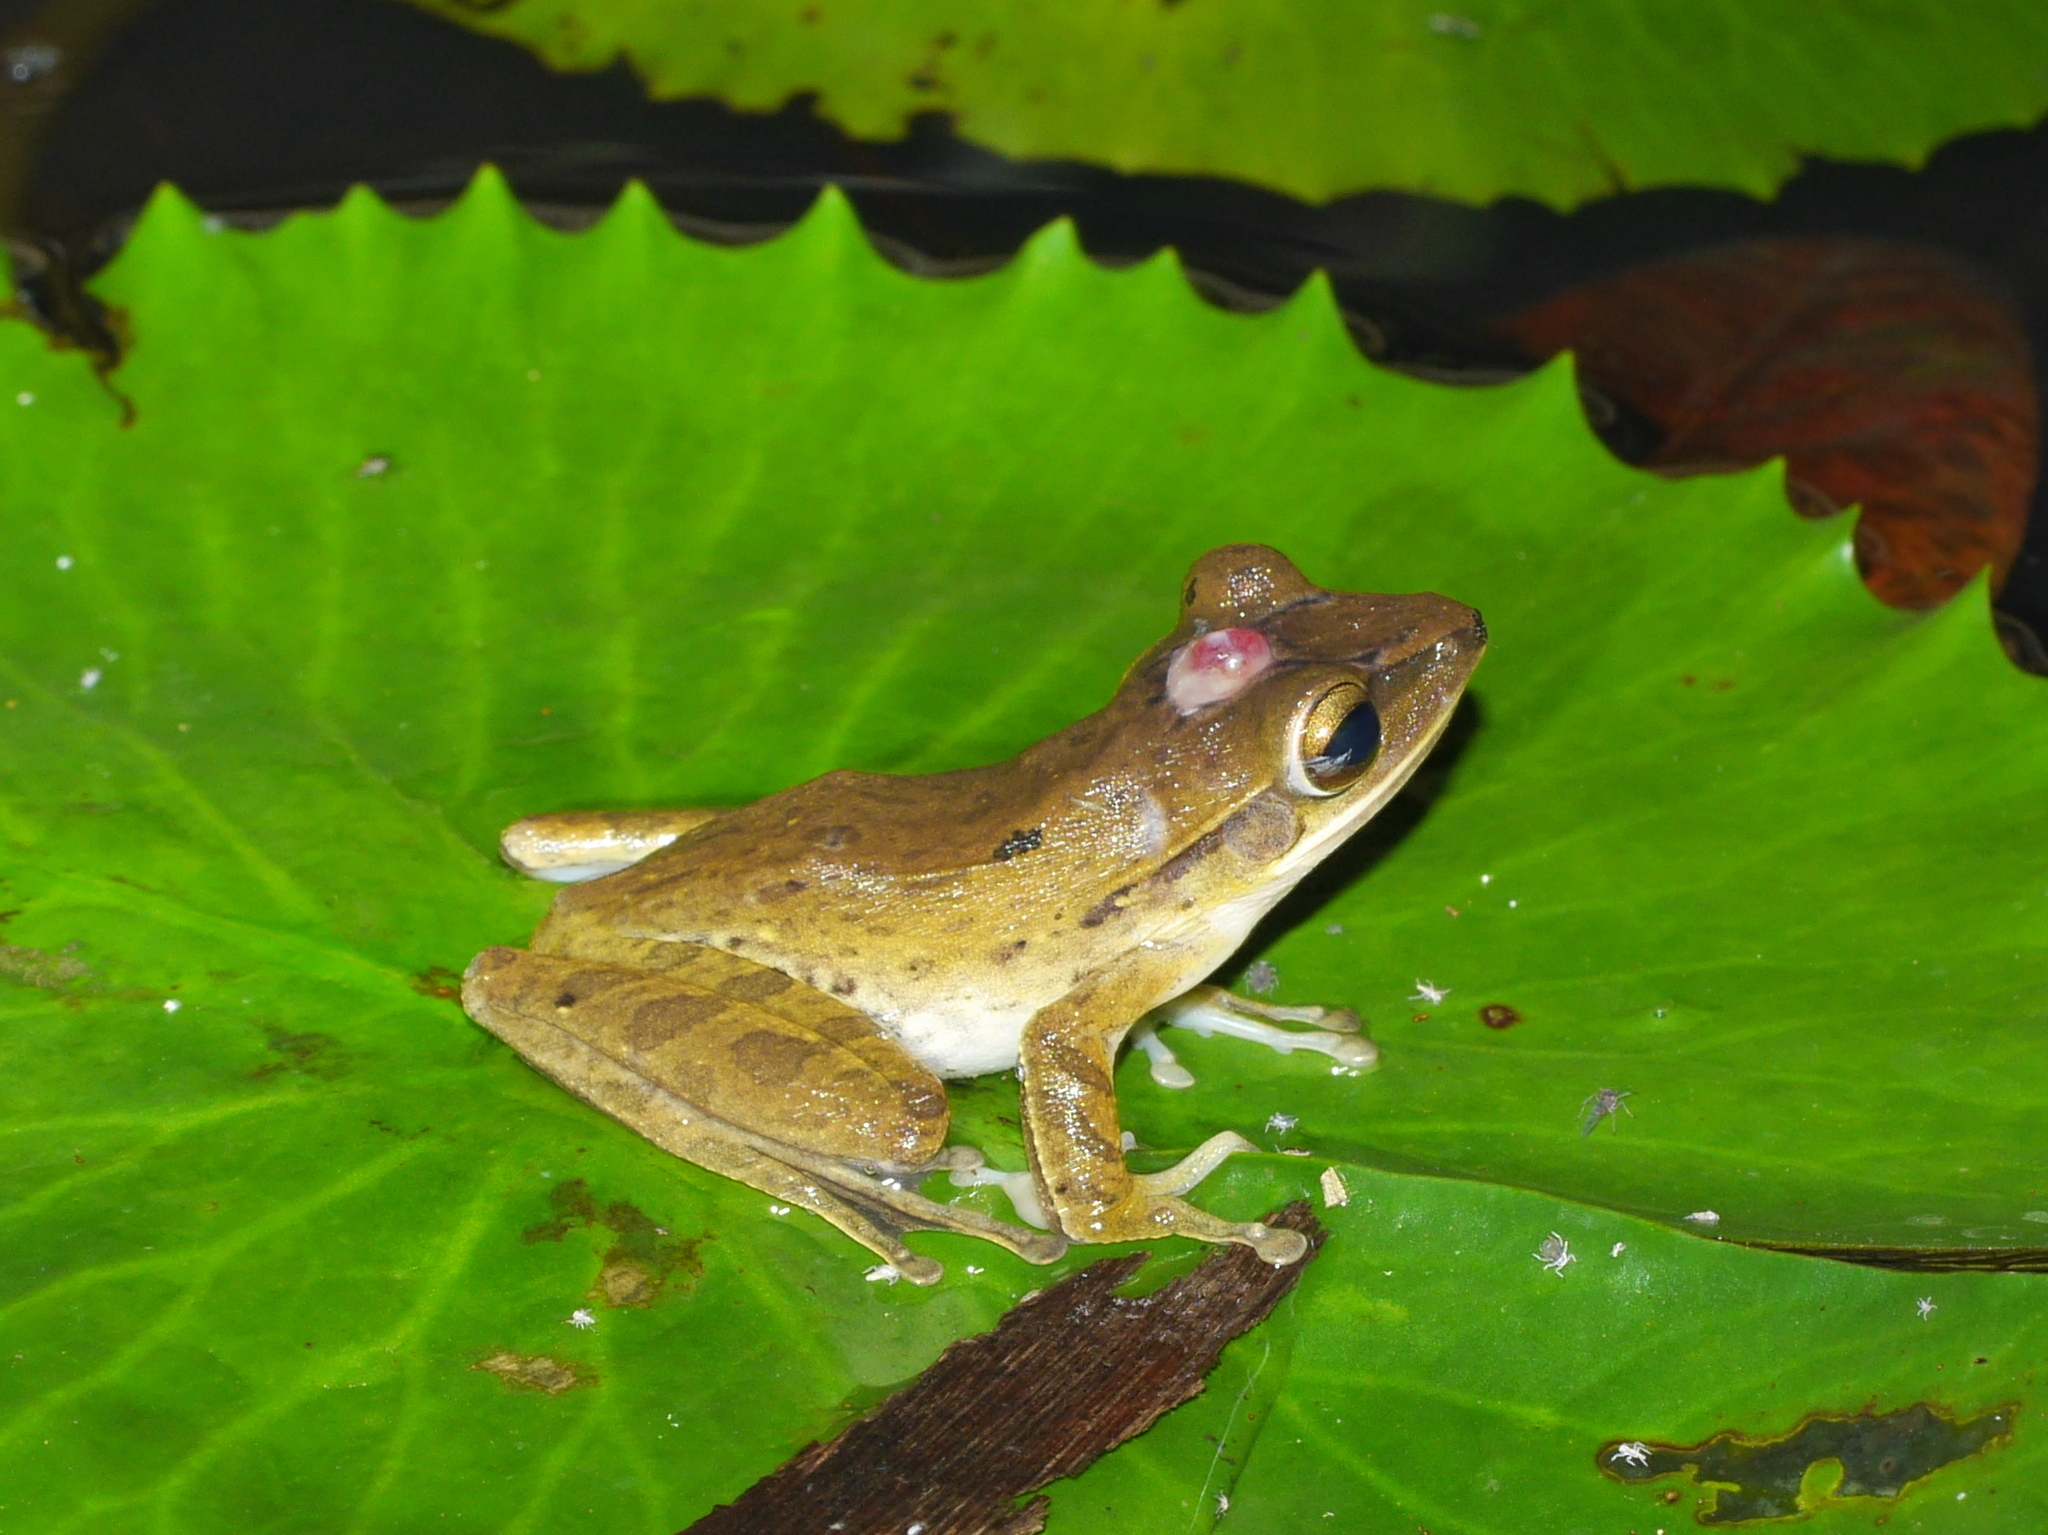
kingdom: Animalia
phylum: Chordata
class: Amphibia
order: Anura
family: Rhacophoridae
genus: Polypedates
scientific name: Polypedates leucomystax
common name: Common tree frog/four-lined tree frog
